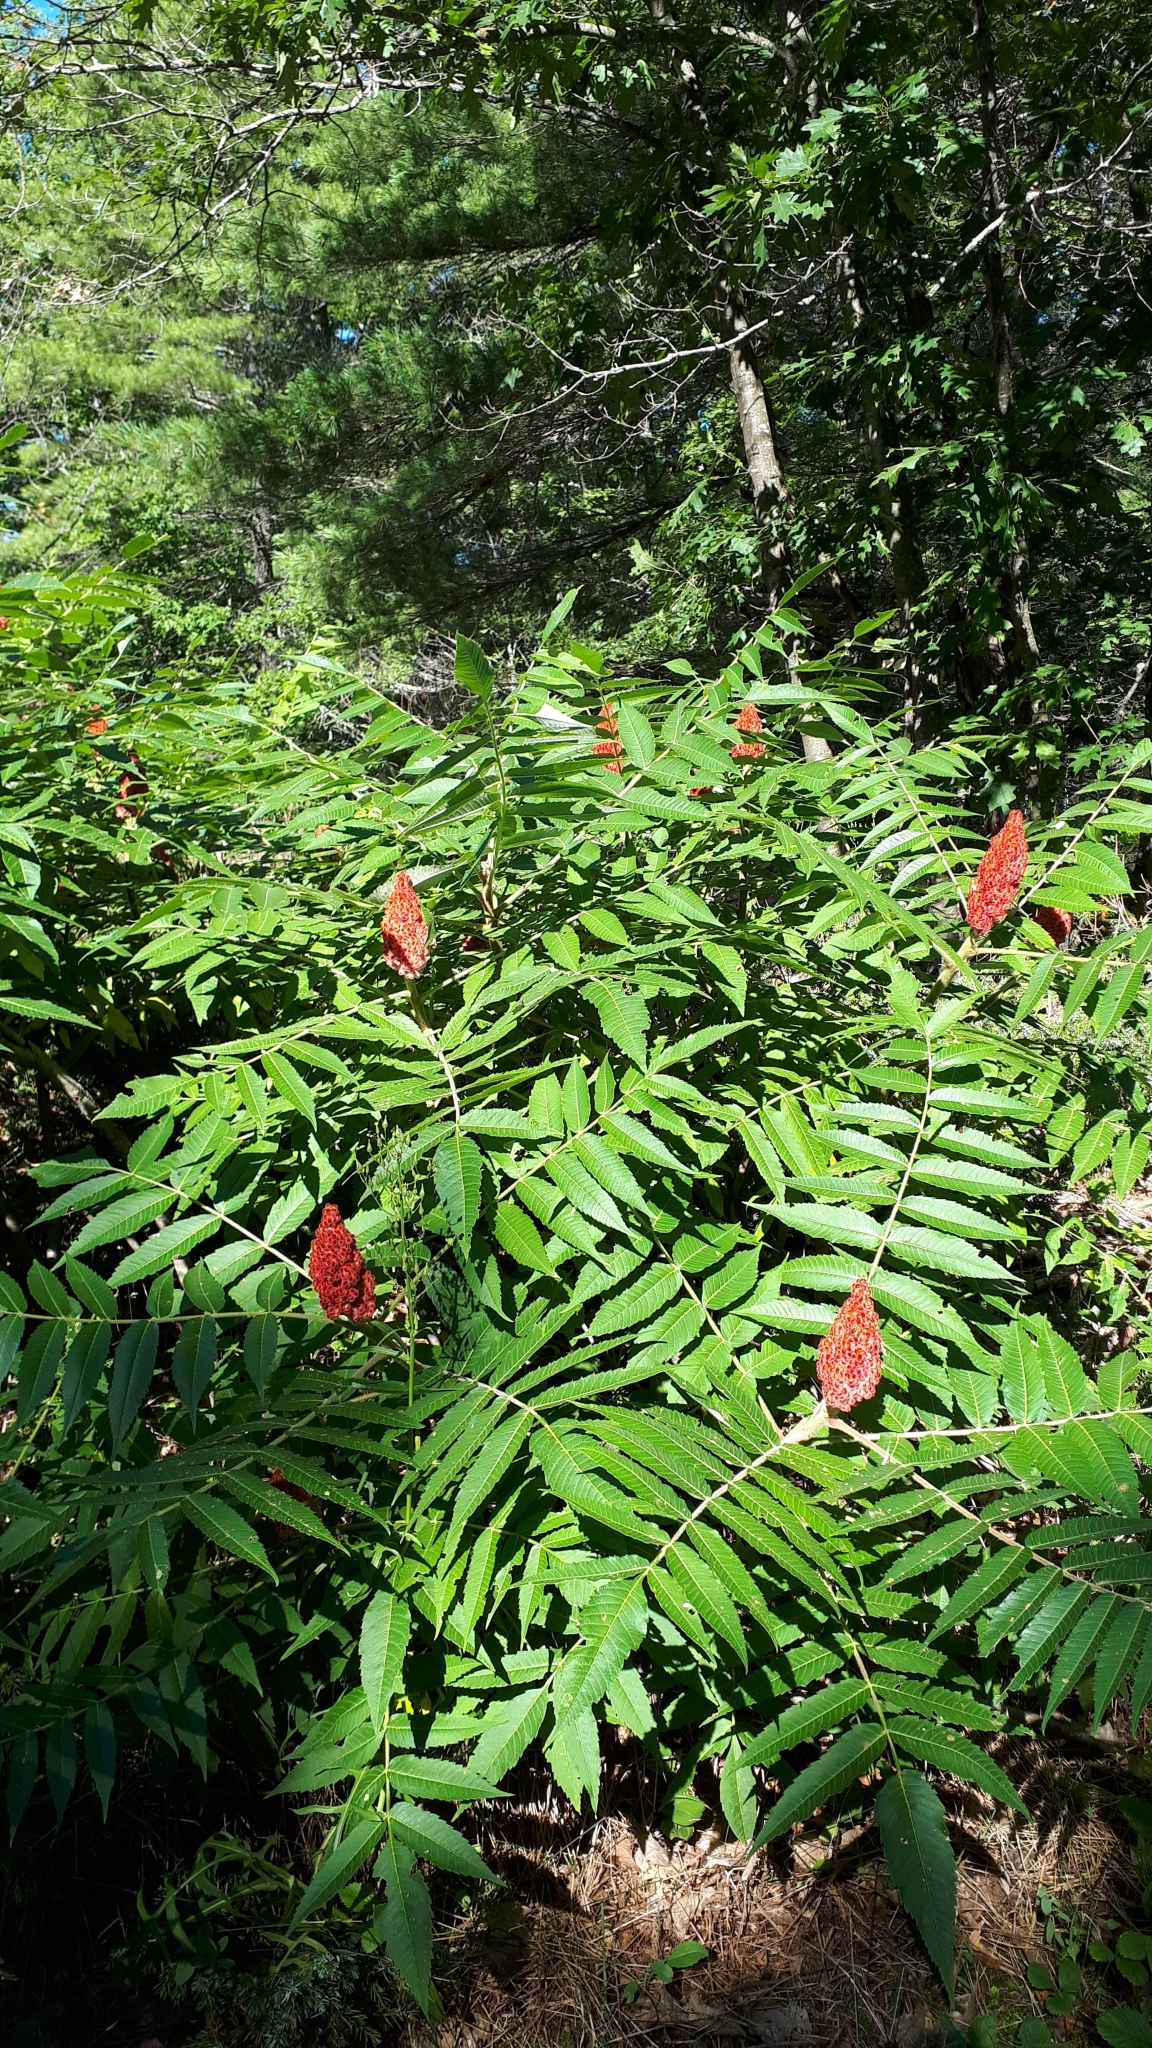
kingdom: Plantae
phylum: Tracheophyta
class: Magnoliopsida
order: Sapindales
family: Anacardiaceae
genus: Rhus
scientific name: Rhus typhina
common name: Staghorn sumac
